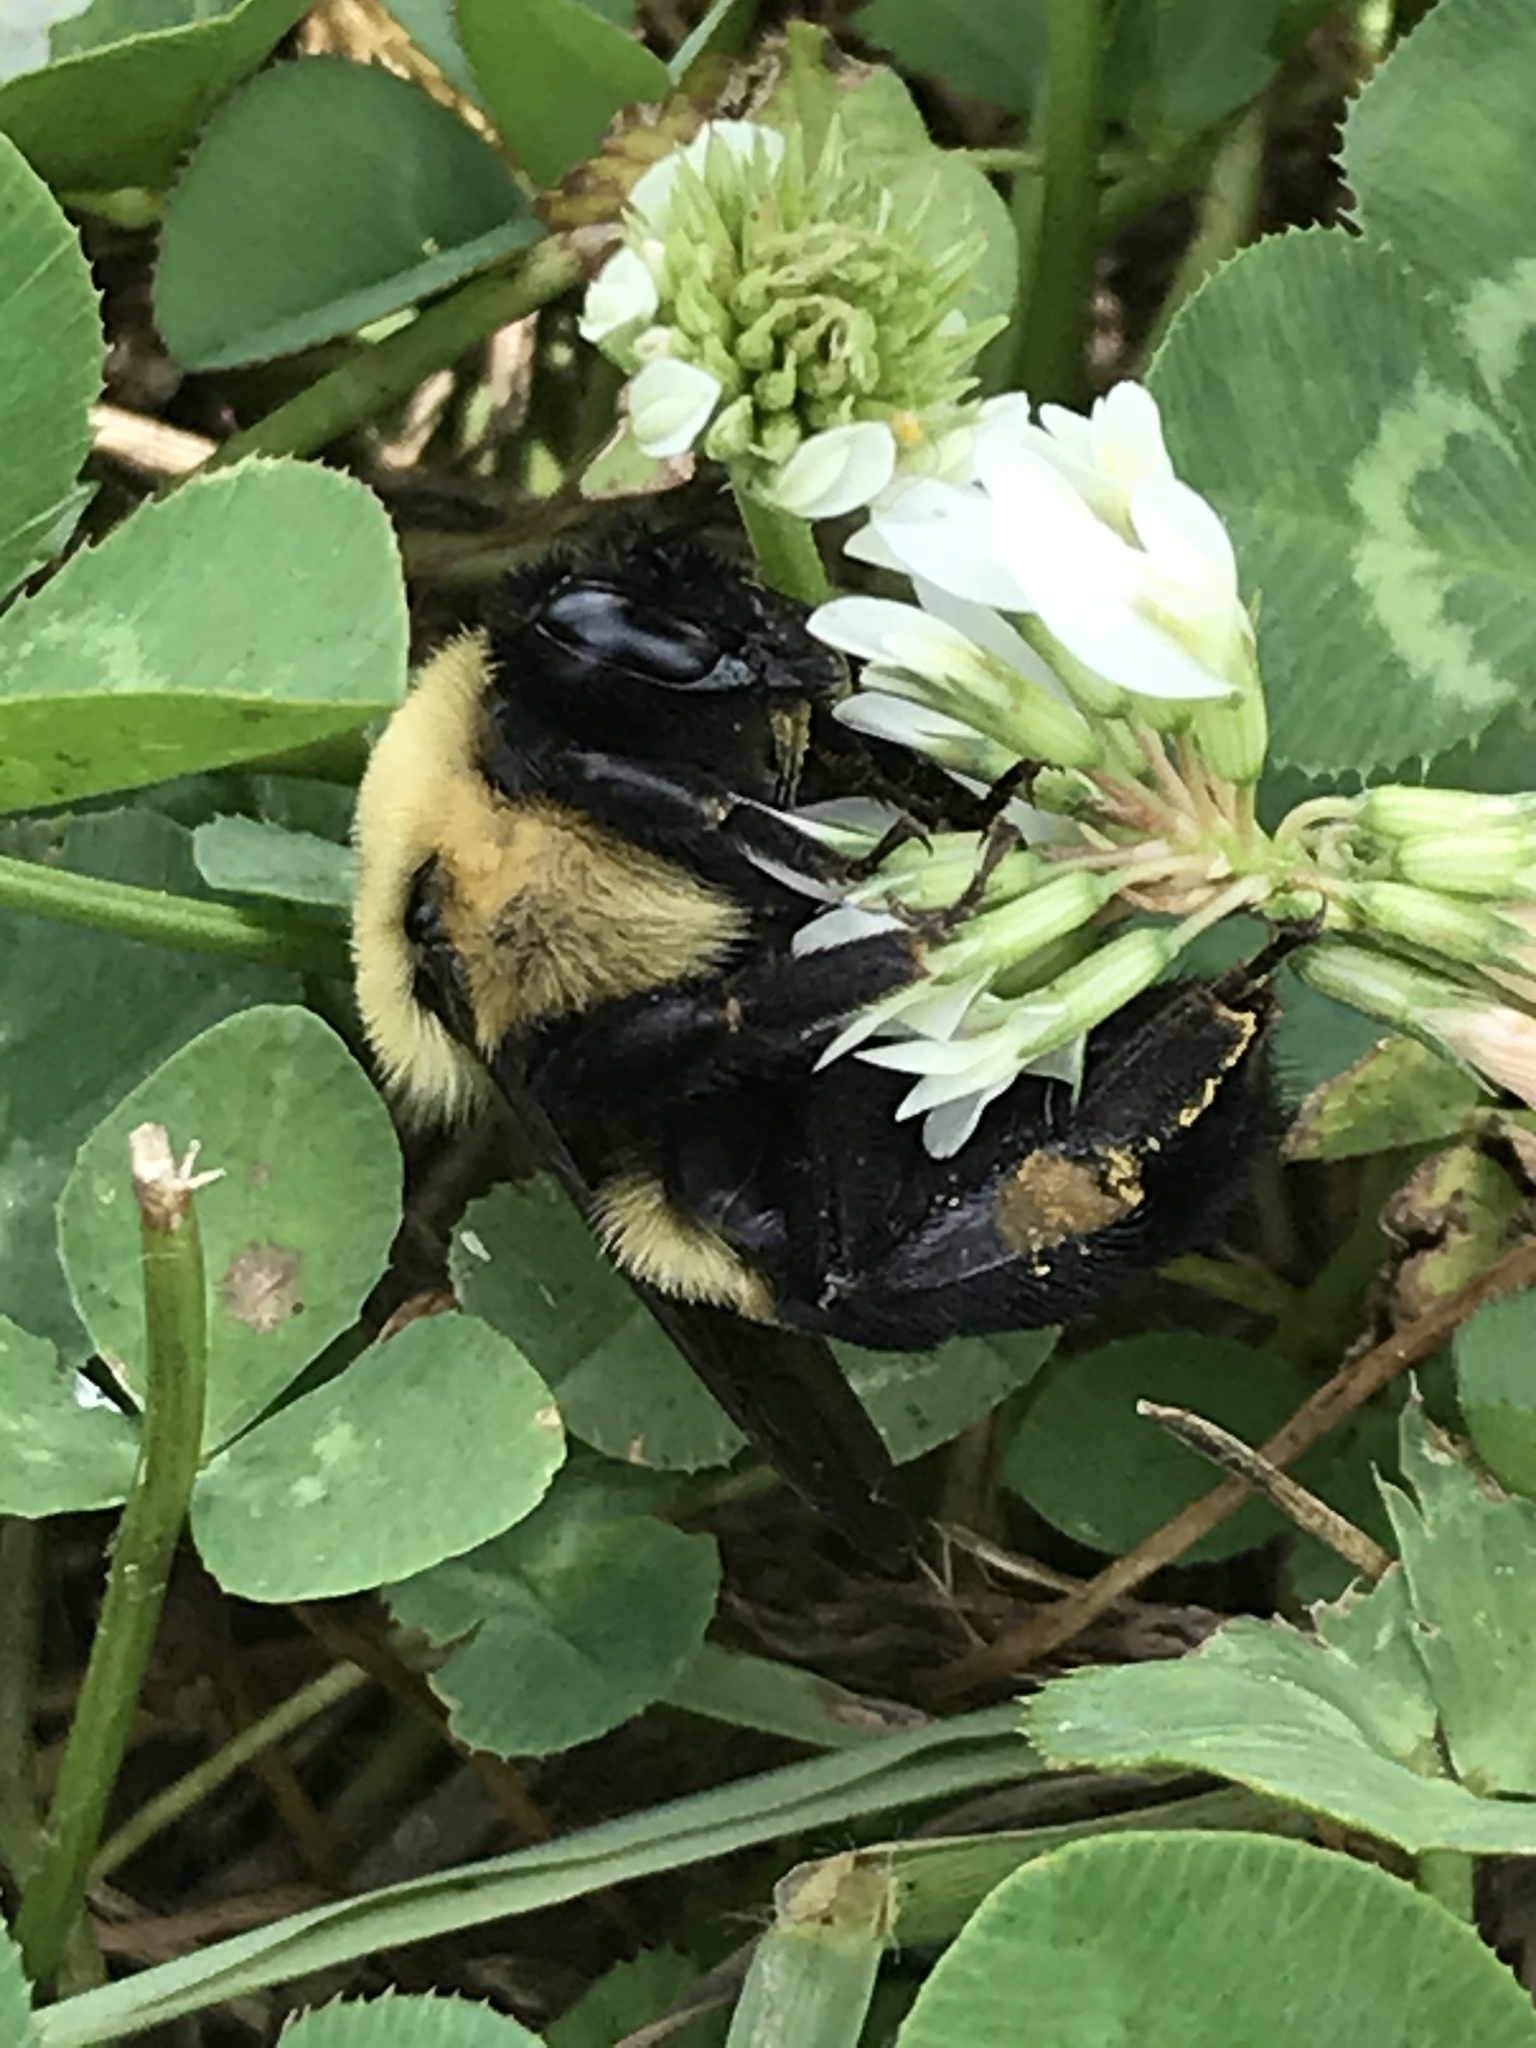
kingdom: Animalia
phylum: Arthropoda
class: Insecta
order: Hymenoptera
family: Apidae
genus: Bombus
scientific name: Bombus griseocollis
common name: Brown-belted bumble bee
